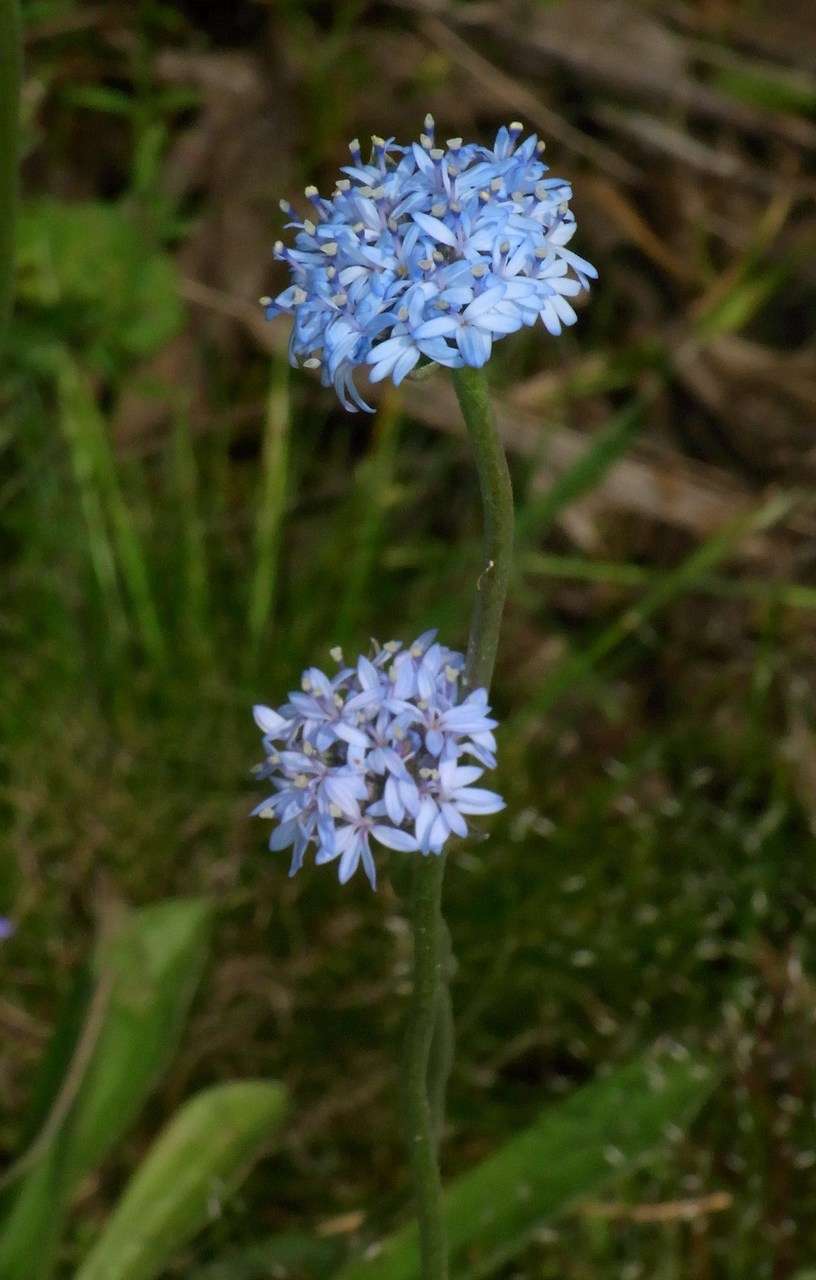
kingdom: Plantae
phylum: Tracheophyta
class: Magnoliopsida
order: Asterales
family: Goodeniaceae
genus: Brunonia
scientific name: Brunonia australis
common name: Blue pincushion
